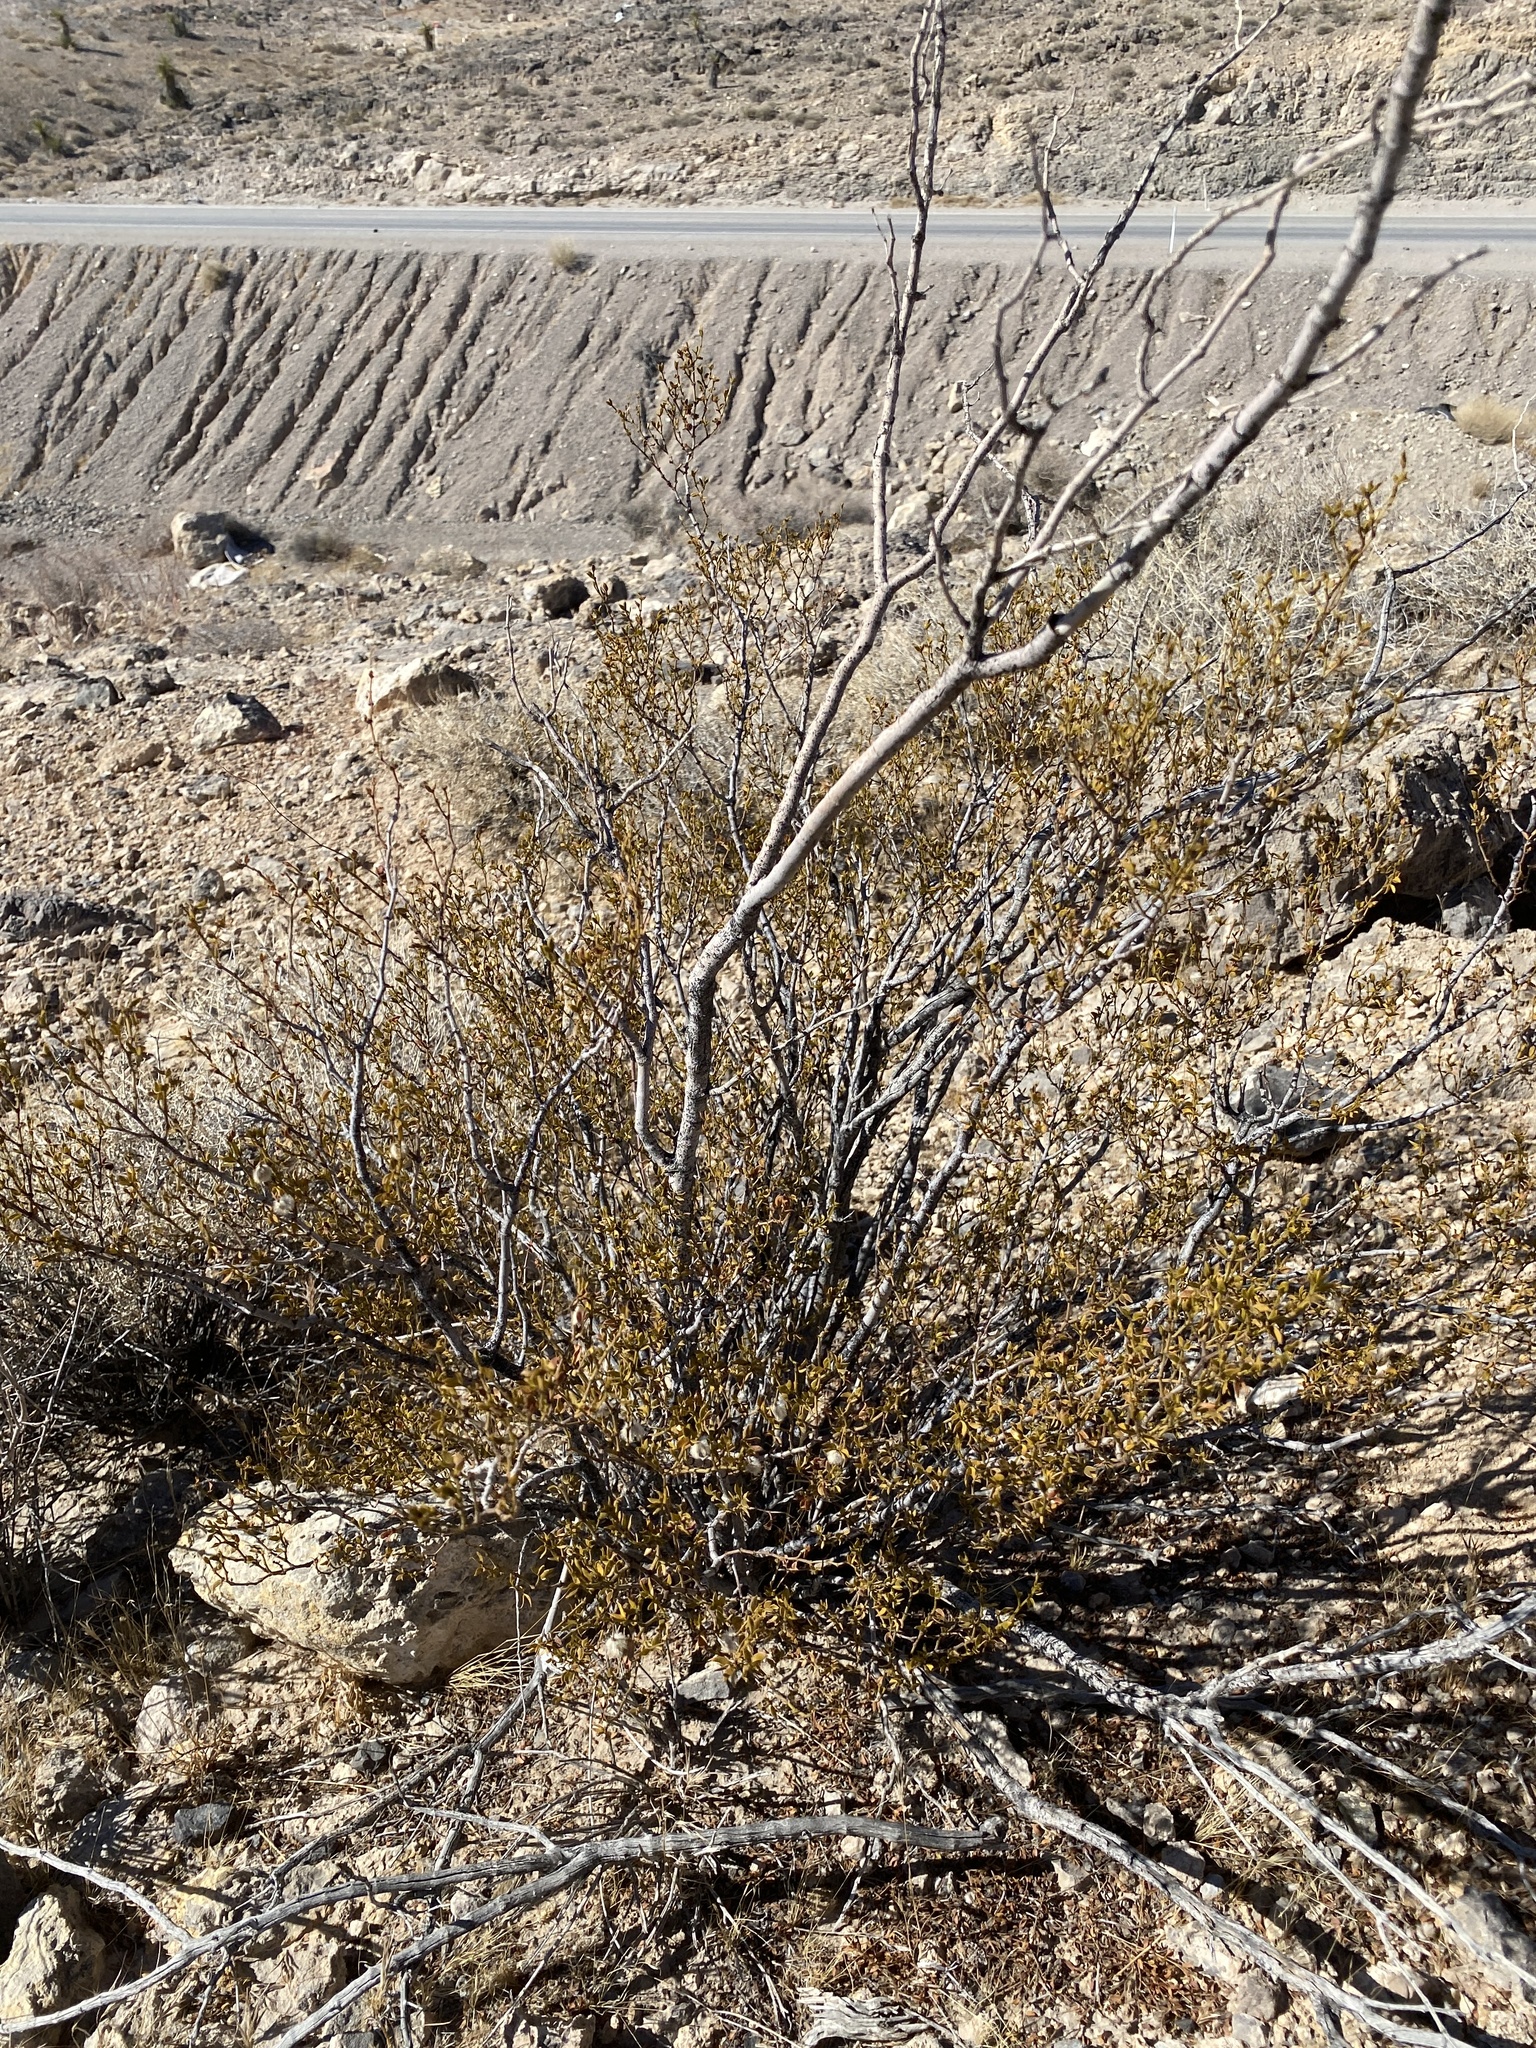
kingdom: Plantae
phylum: Tracheophyta
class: Magnoliopsida
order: Zygophyllales
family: Zygophyllaceae
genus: Larrea
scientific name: Larrea tridentata
